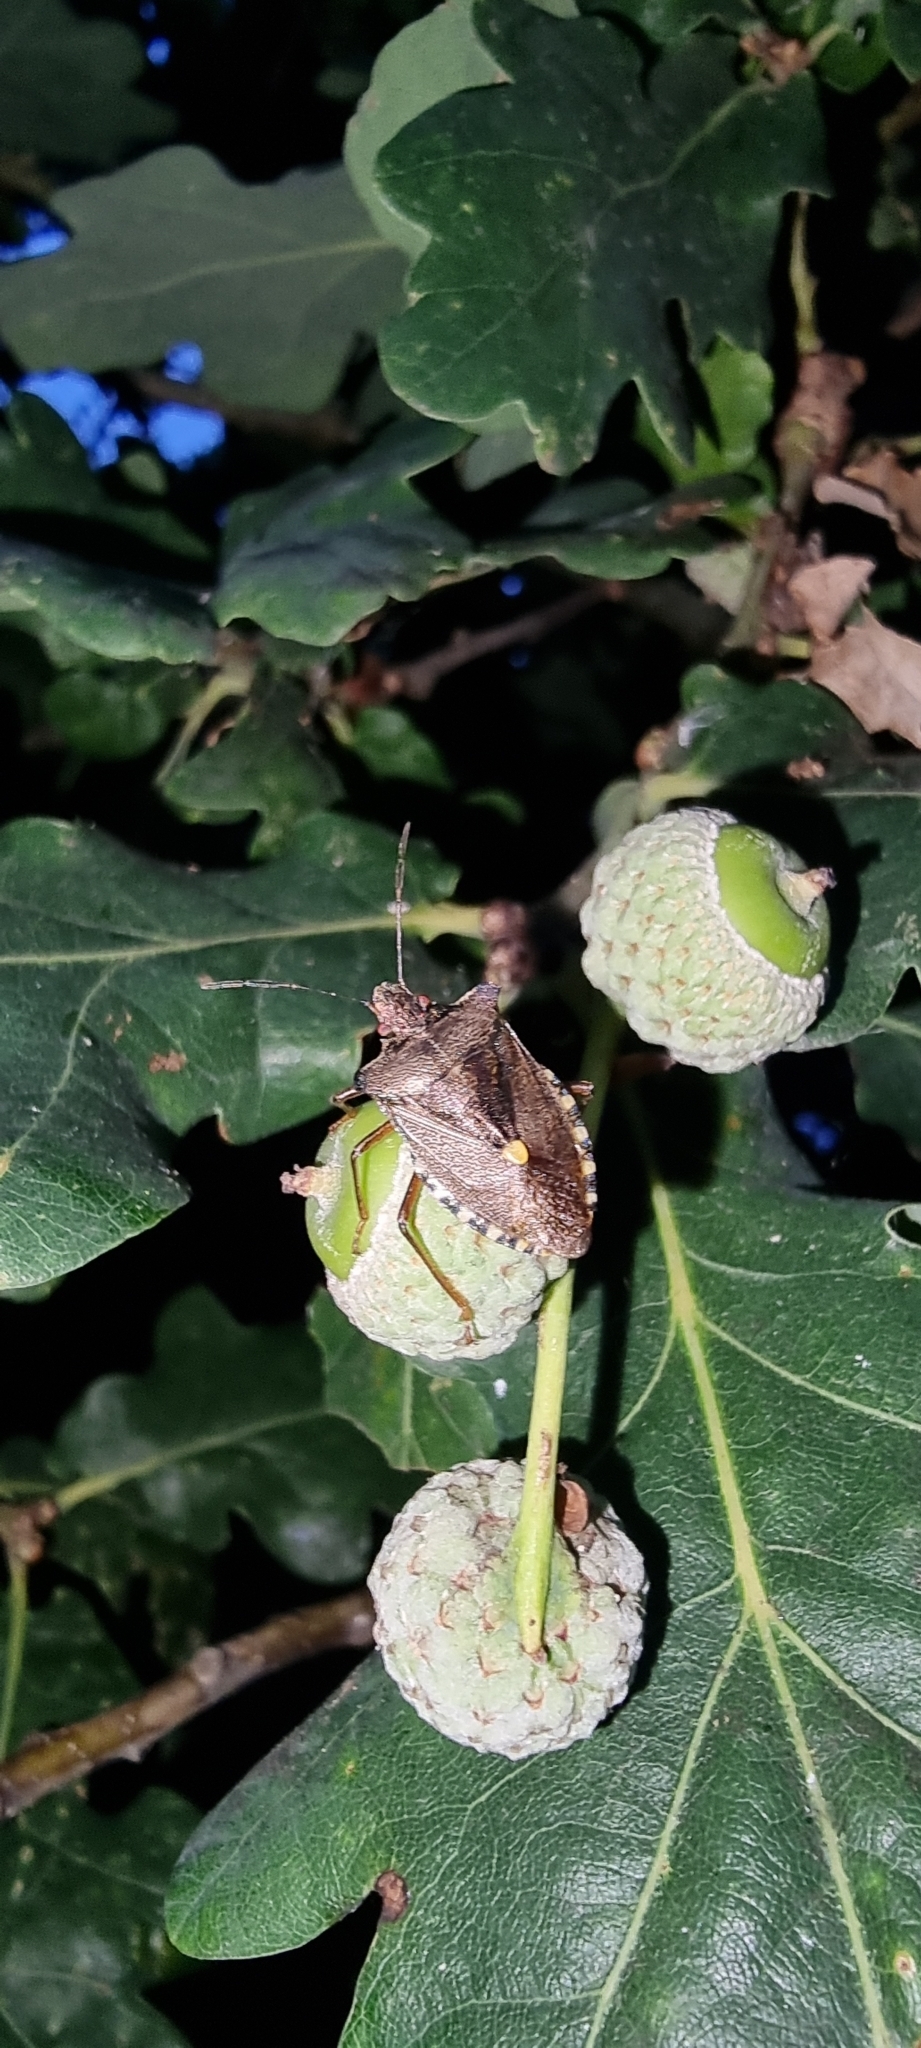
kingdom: Animalia
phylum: Arthropoda
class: Insecta
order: Hemiptera
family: Pentatomidae
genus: Pentatoma
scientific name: Pentatoma rufipes
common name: Forest bug
